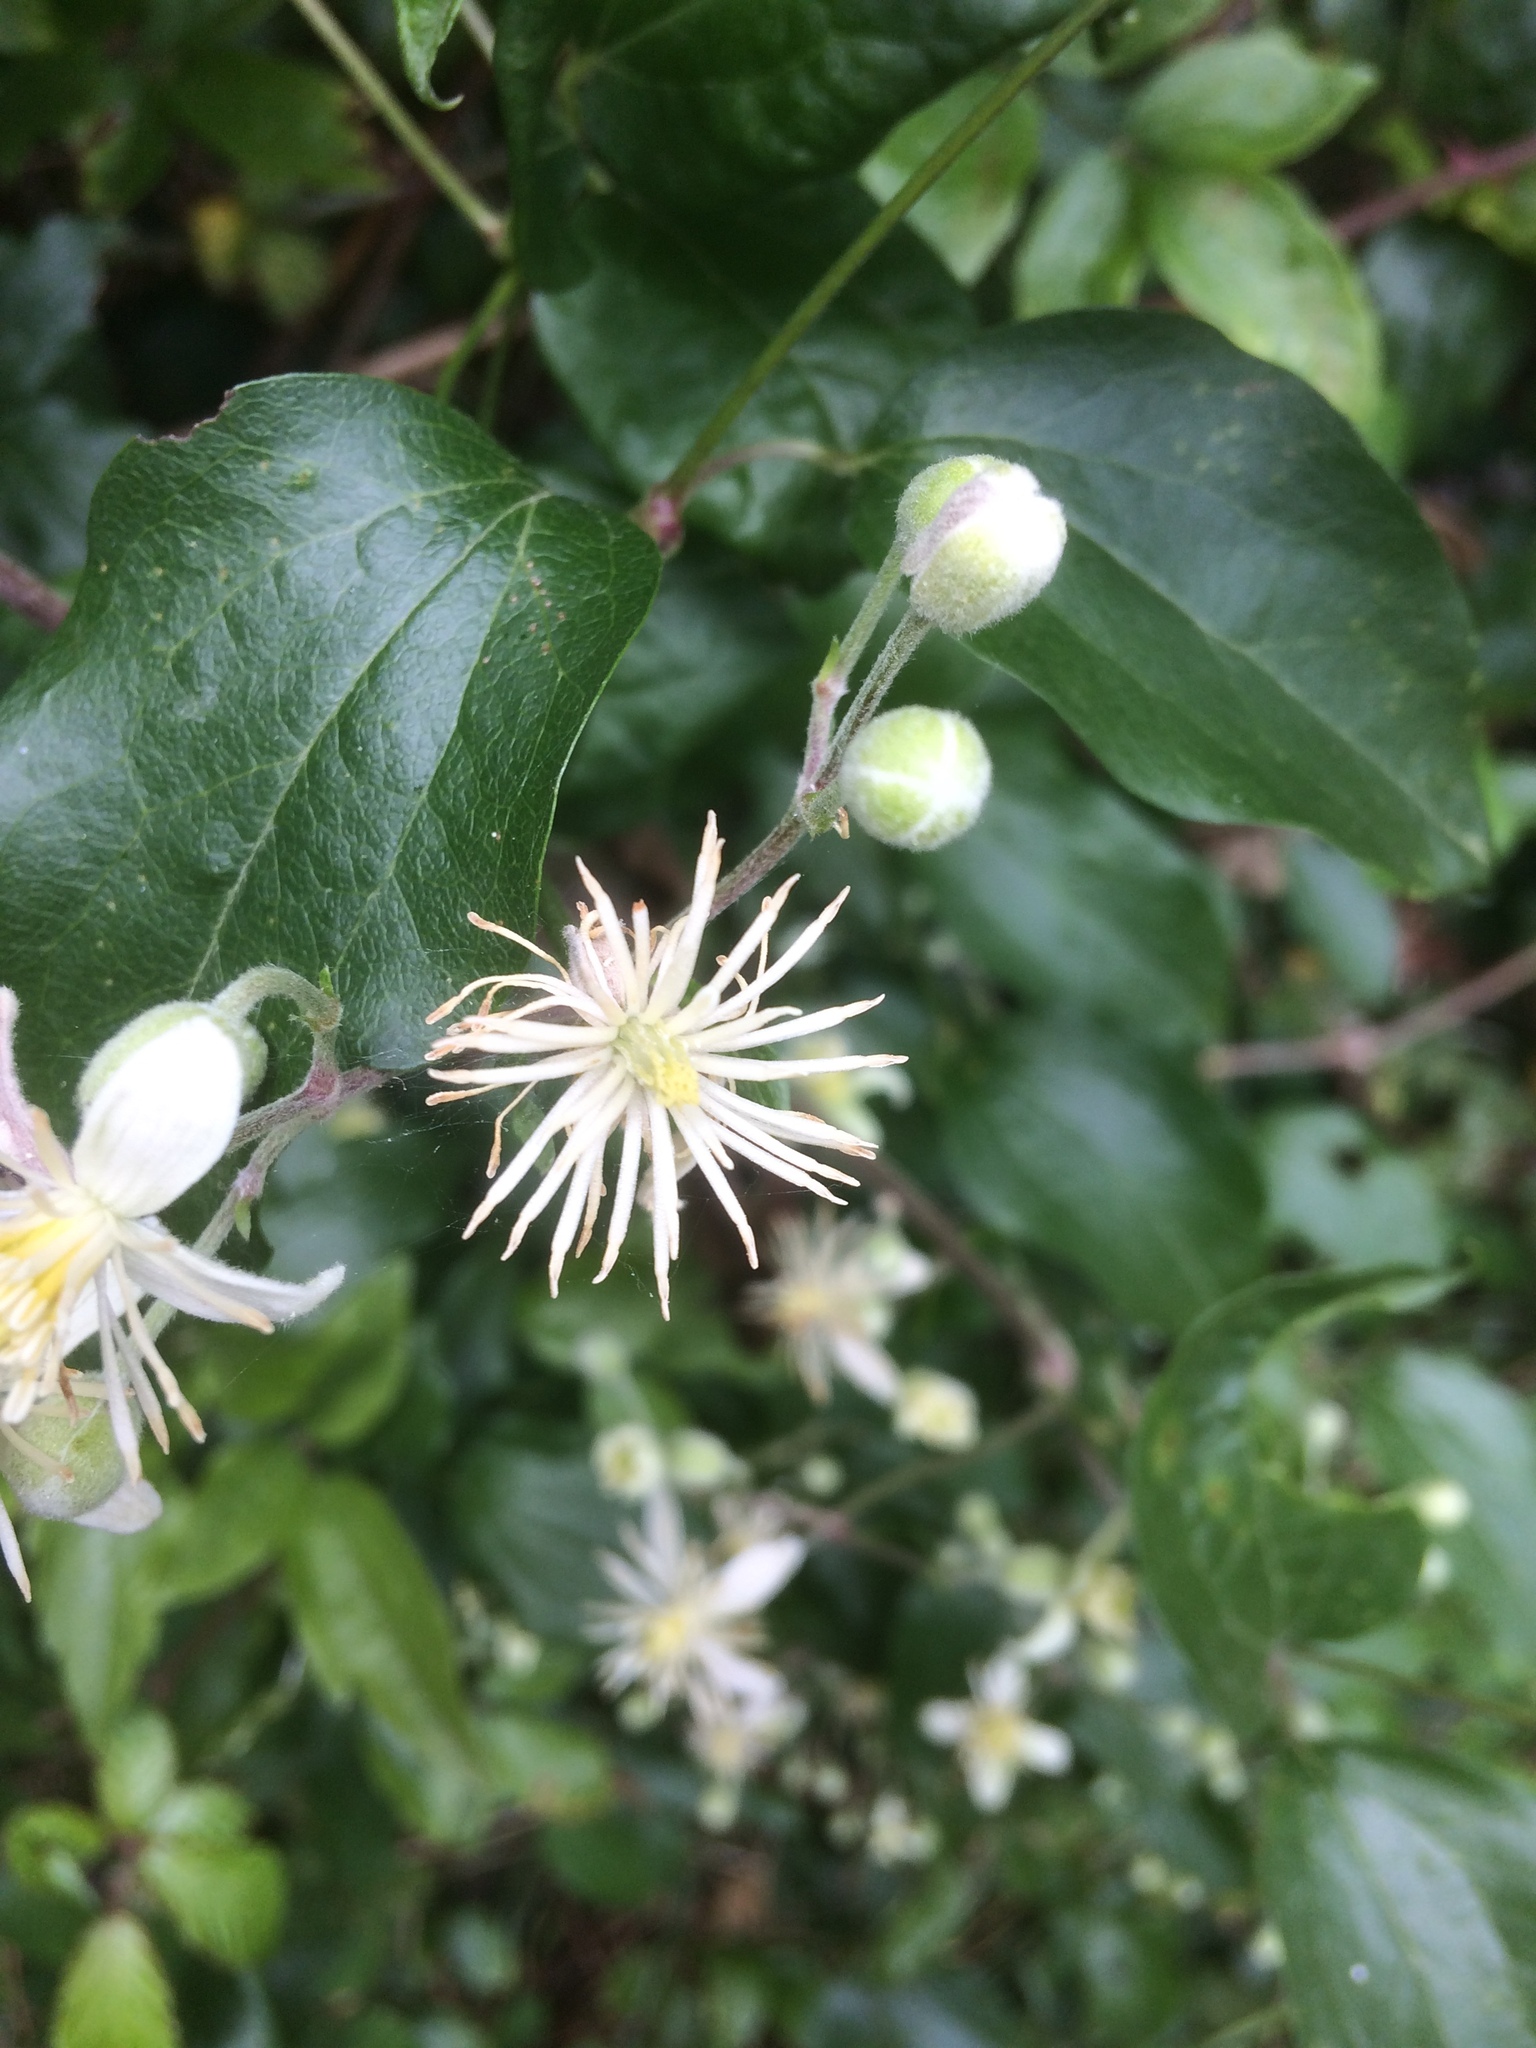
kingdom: Plantae
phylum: Tracheophyta
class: Magnoliopsida
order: Ranunculales
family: Ranunculaceae
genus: Clematis
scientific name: Clematis vitalba
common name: Evergreen clematis
